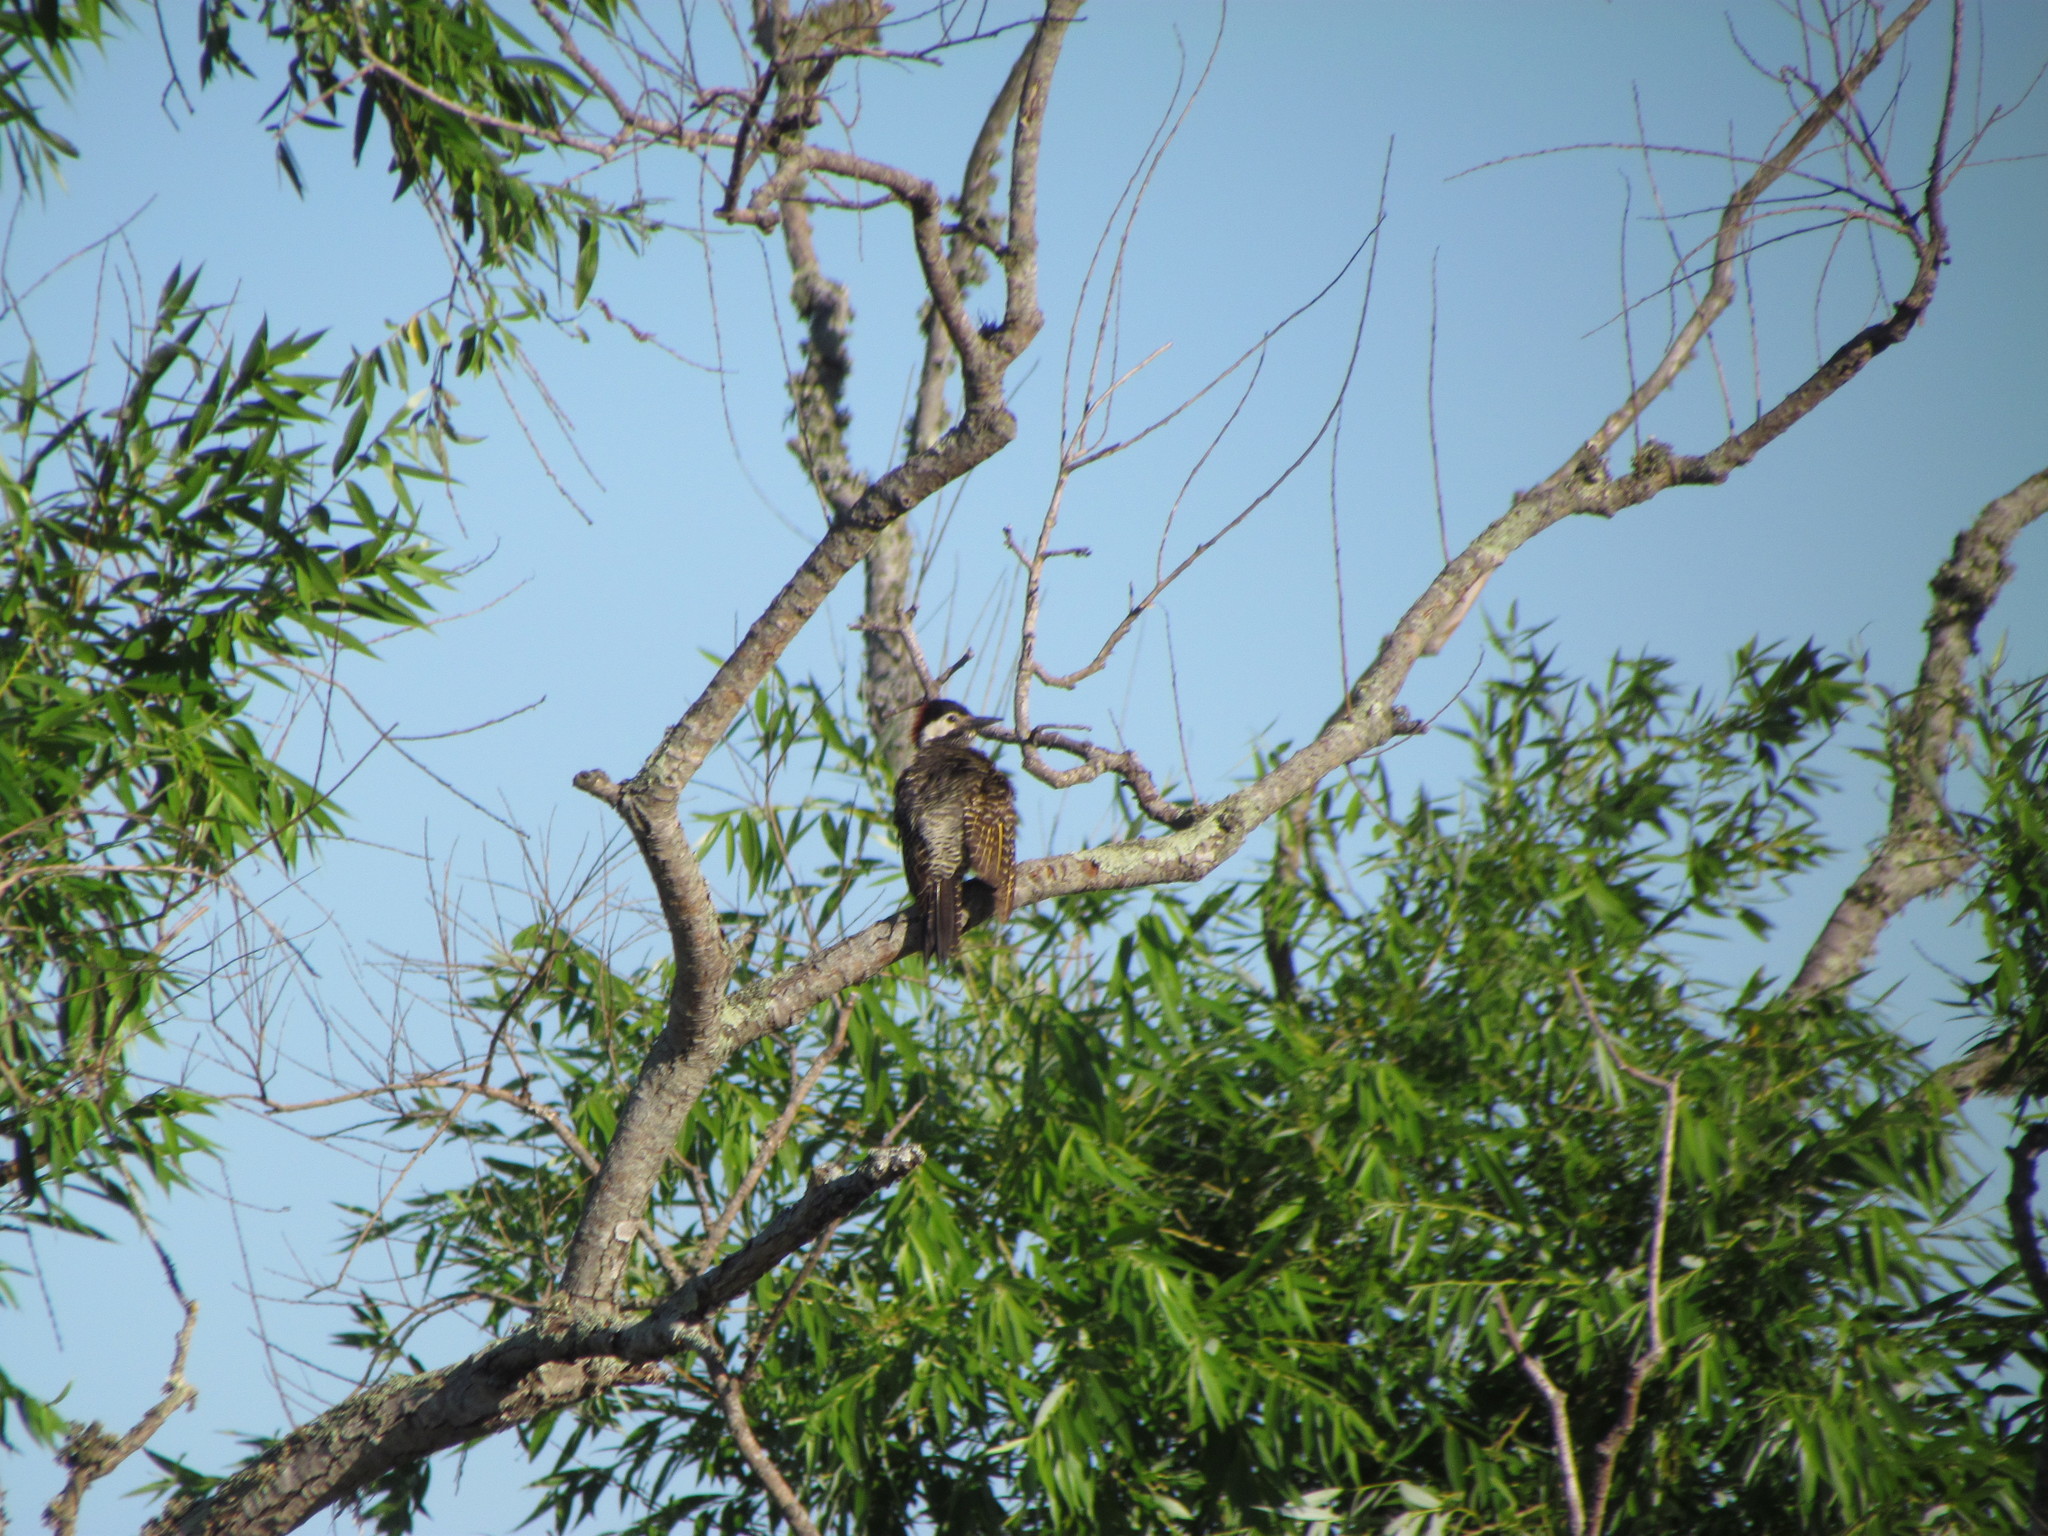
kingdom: Animalia
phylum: Chordata
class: Aves
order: Piciformes
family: Picidae
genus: Colaptes
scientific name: Colaptes melanochloros
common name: Green-barred woodpecker
